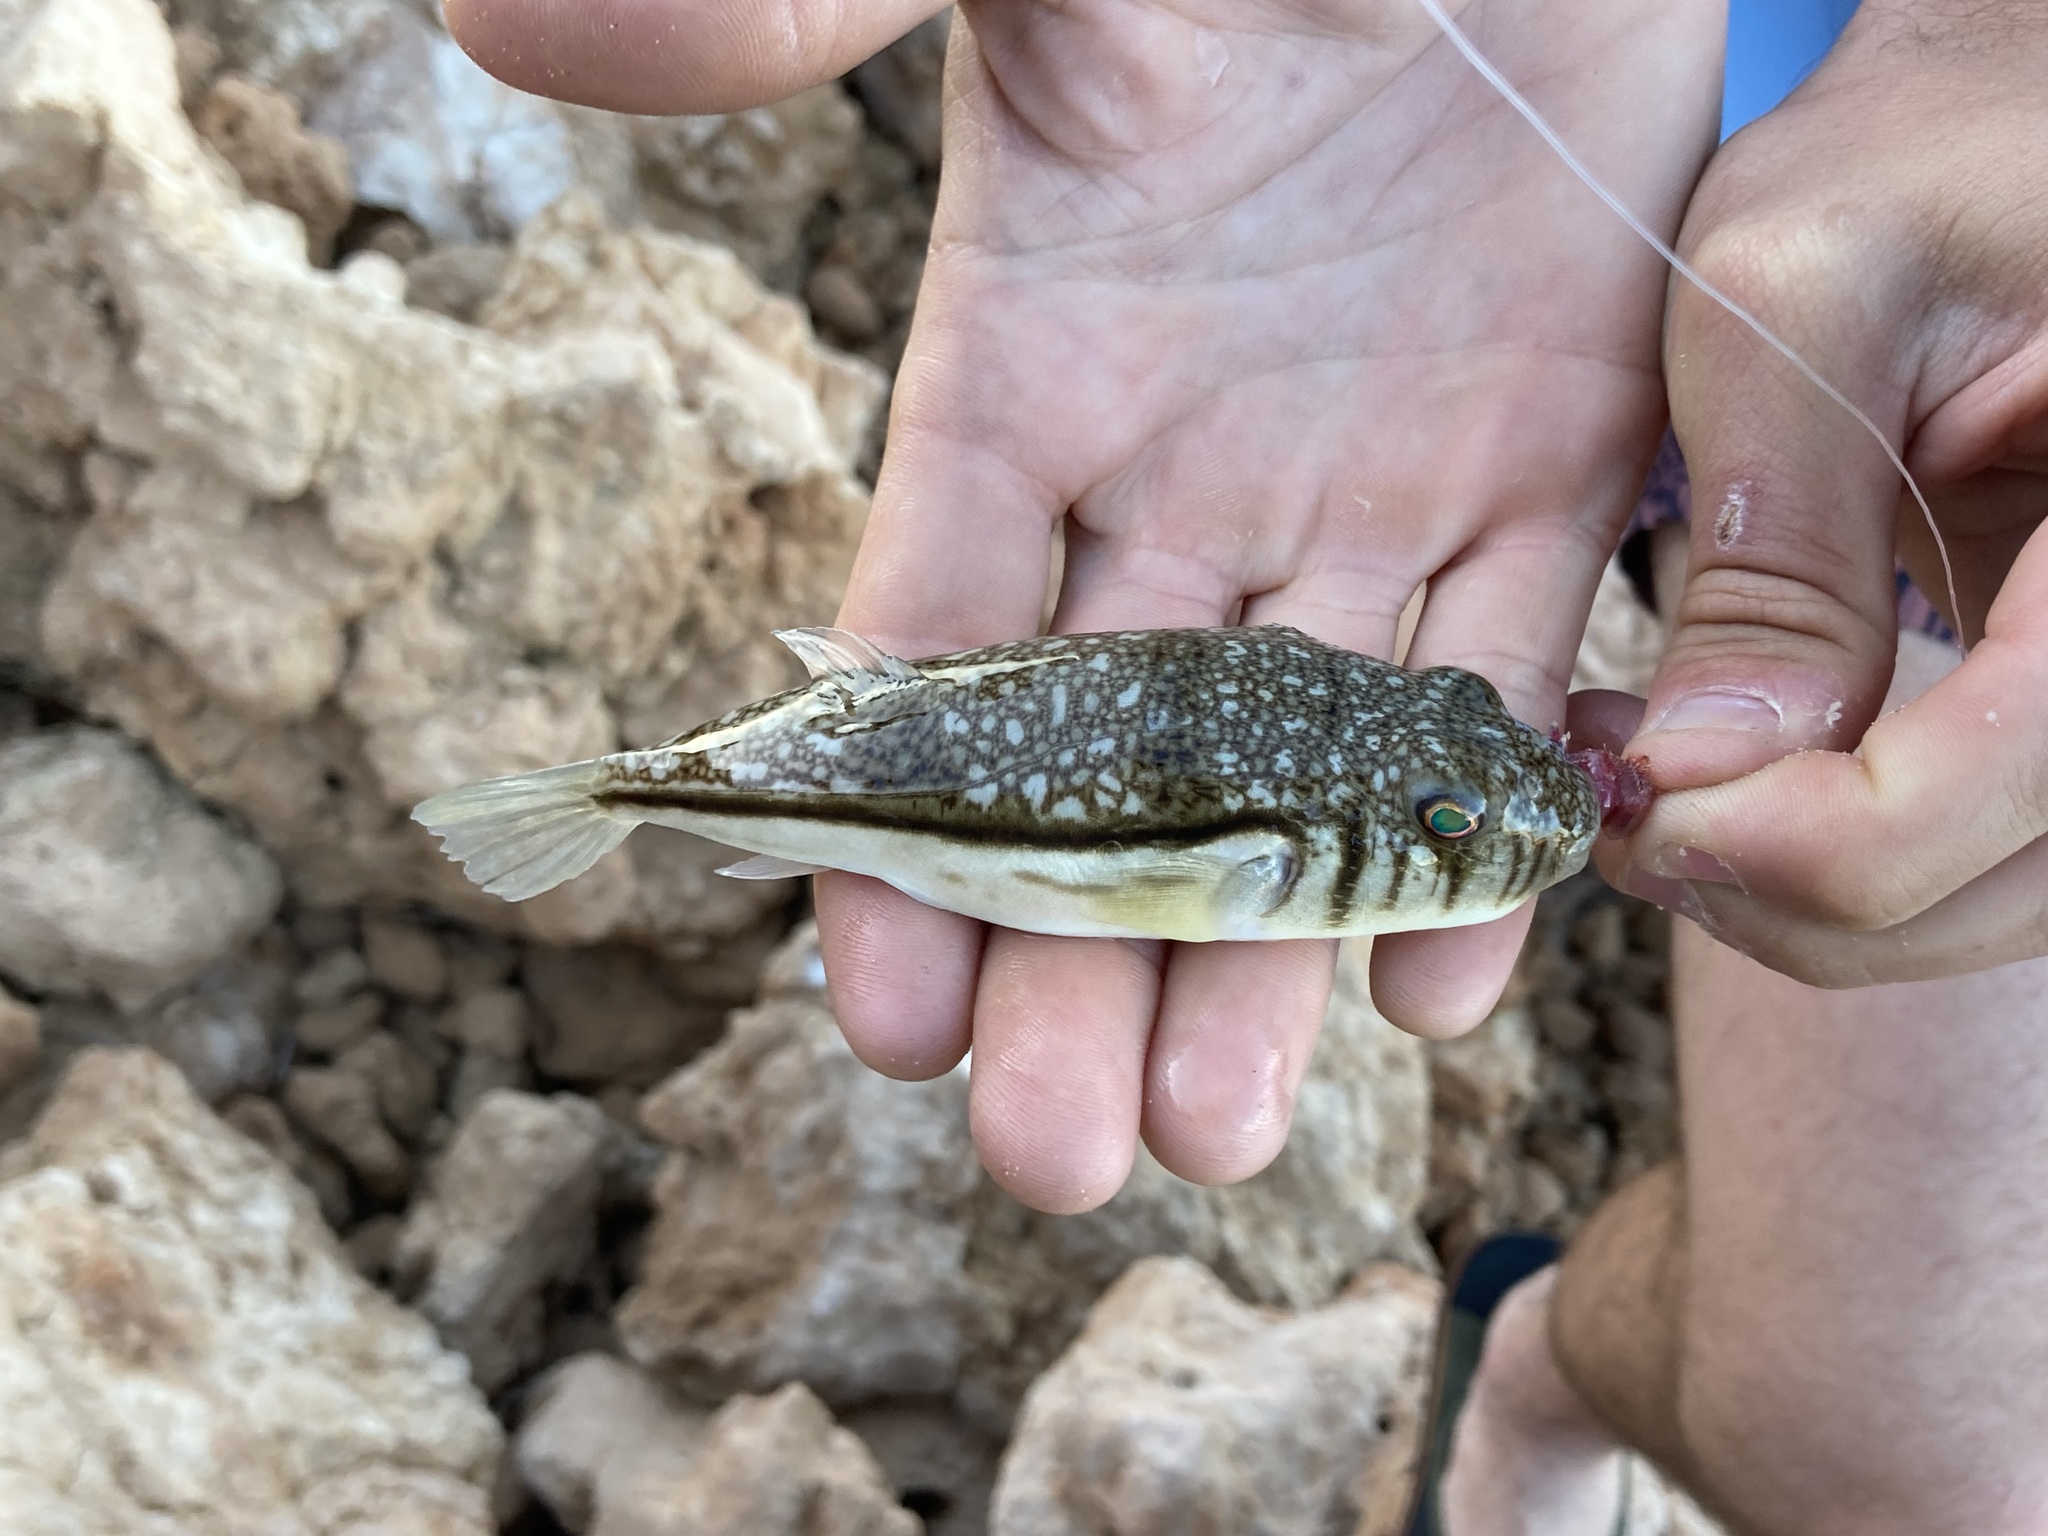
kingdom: Animalia
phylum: Chordata
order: Tetraodontiformes
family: Tetraodontidae
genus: Torquigener
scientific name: Torquigener pleurogramma
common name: Banded toadfish
